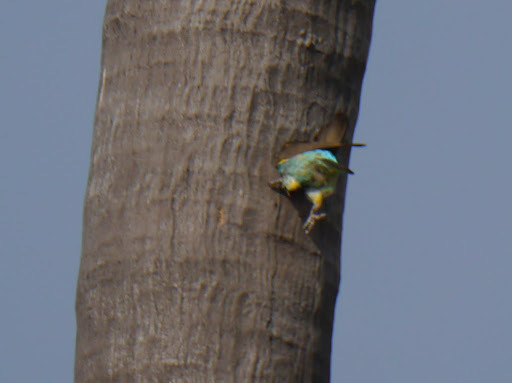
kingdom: Animalia
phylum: Chordata
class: Aves
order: Psittaciformes
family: Psittacidae
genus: Poicephalus
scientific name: Poicephalus meyeri
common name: Meyer's parrot
